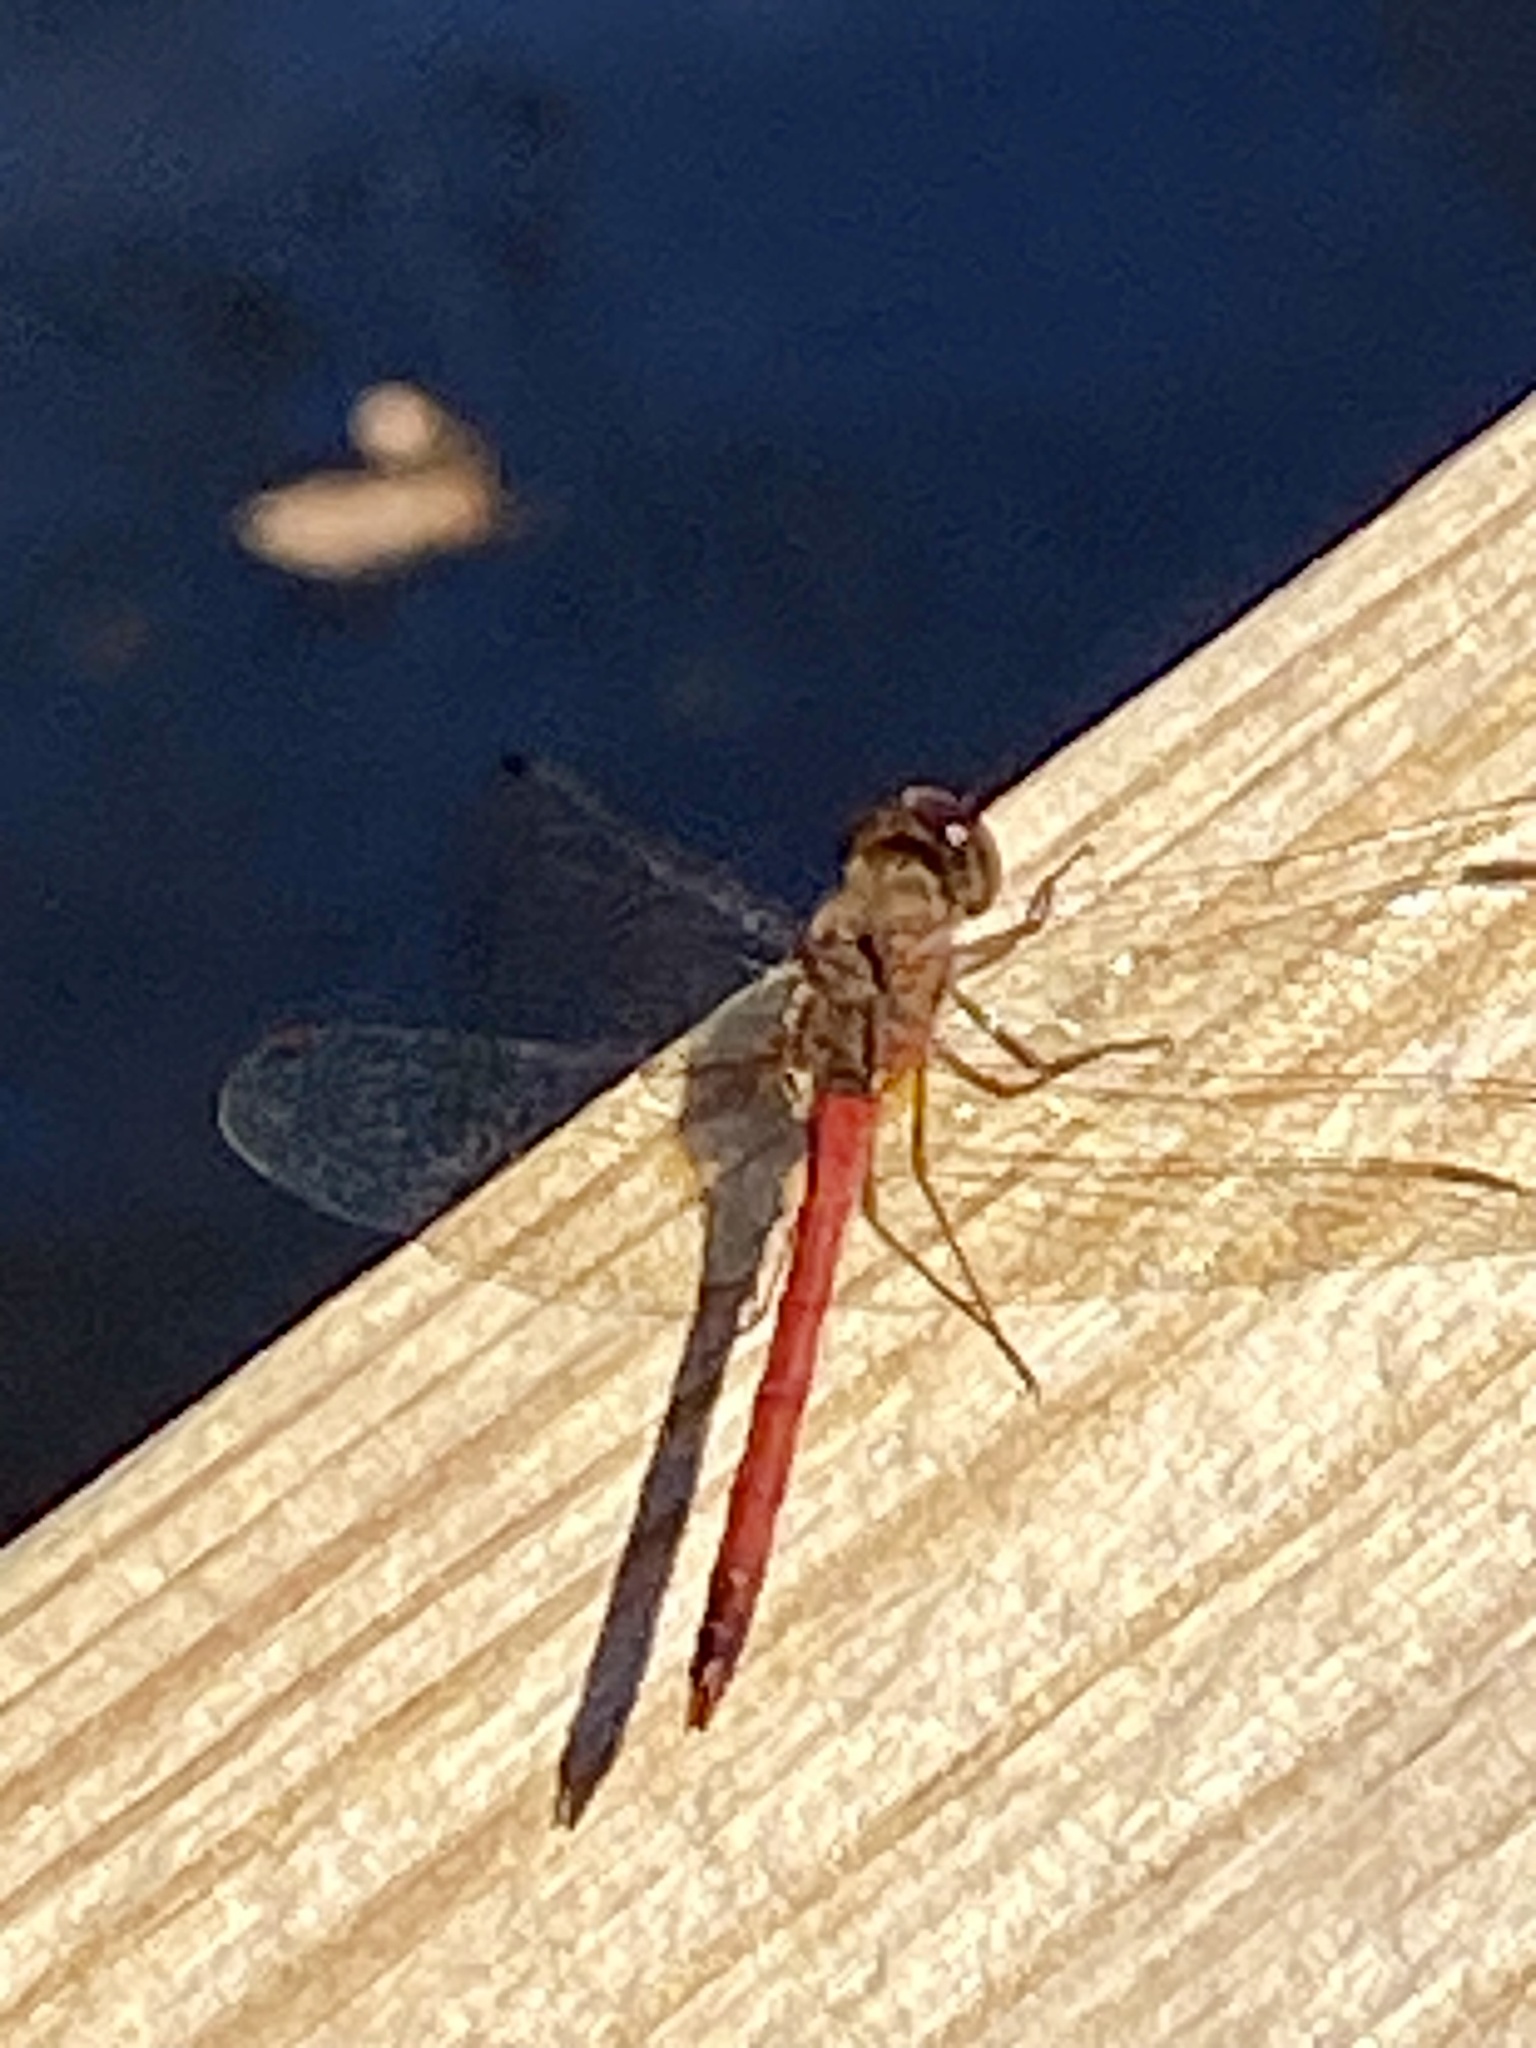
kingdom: Animalia
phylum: Arthropoda
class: Insecta
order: Odonata
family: Libellulidae
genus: Sympetrum
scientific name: Sympetrum vicinum
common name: Autumn meadowhawk
